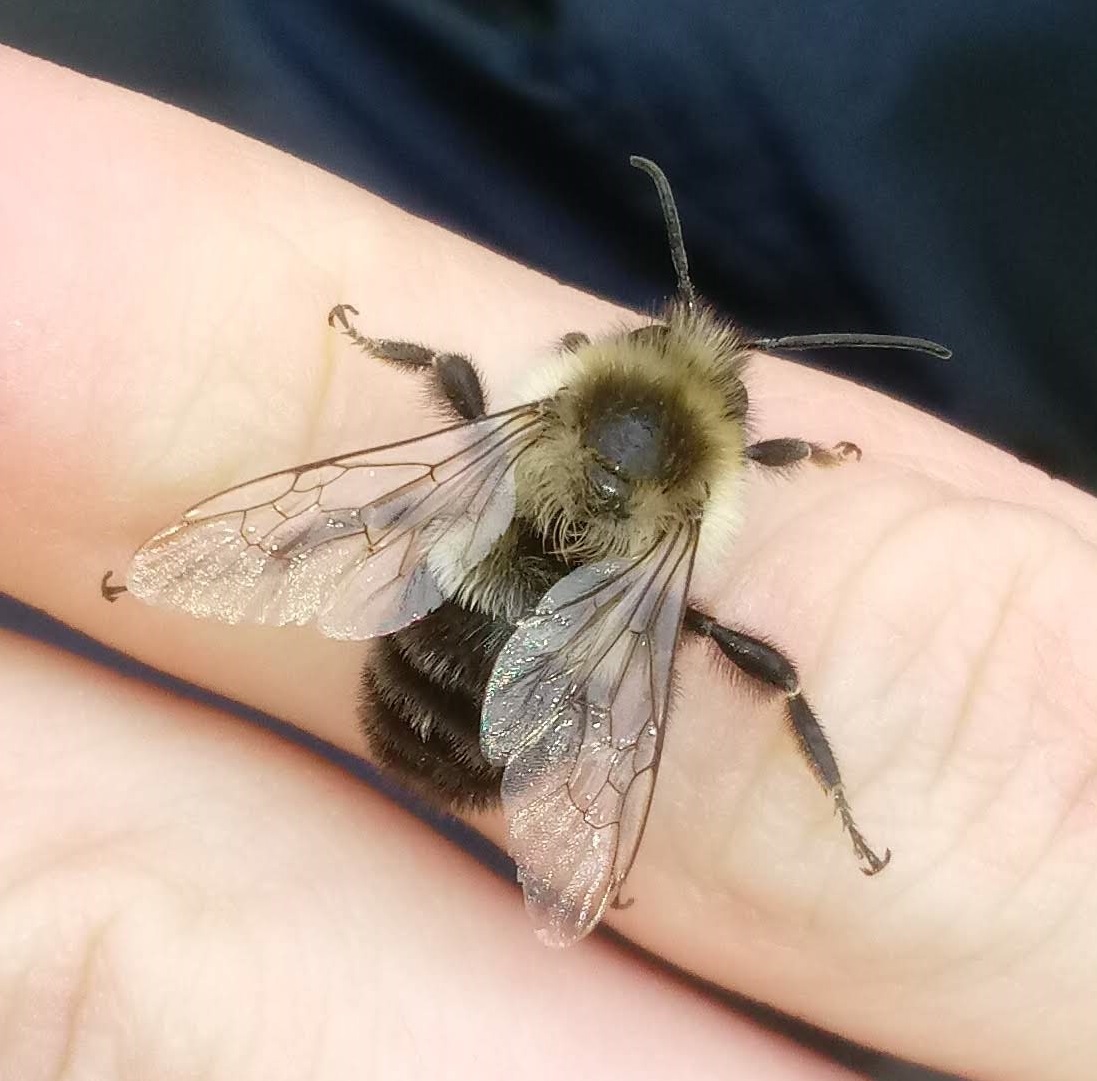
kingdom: Animalia
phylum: Arthropoda
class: Insecta
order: Hymenoptera
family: Apidae
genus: Bombus
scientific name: Bombus impatiens
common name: Common eastern bumble bee
